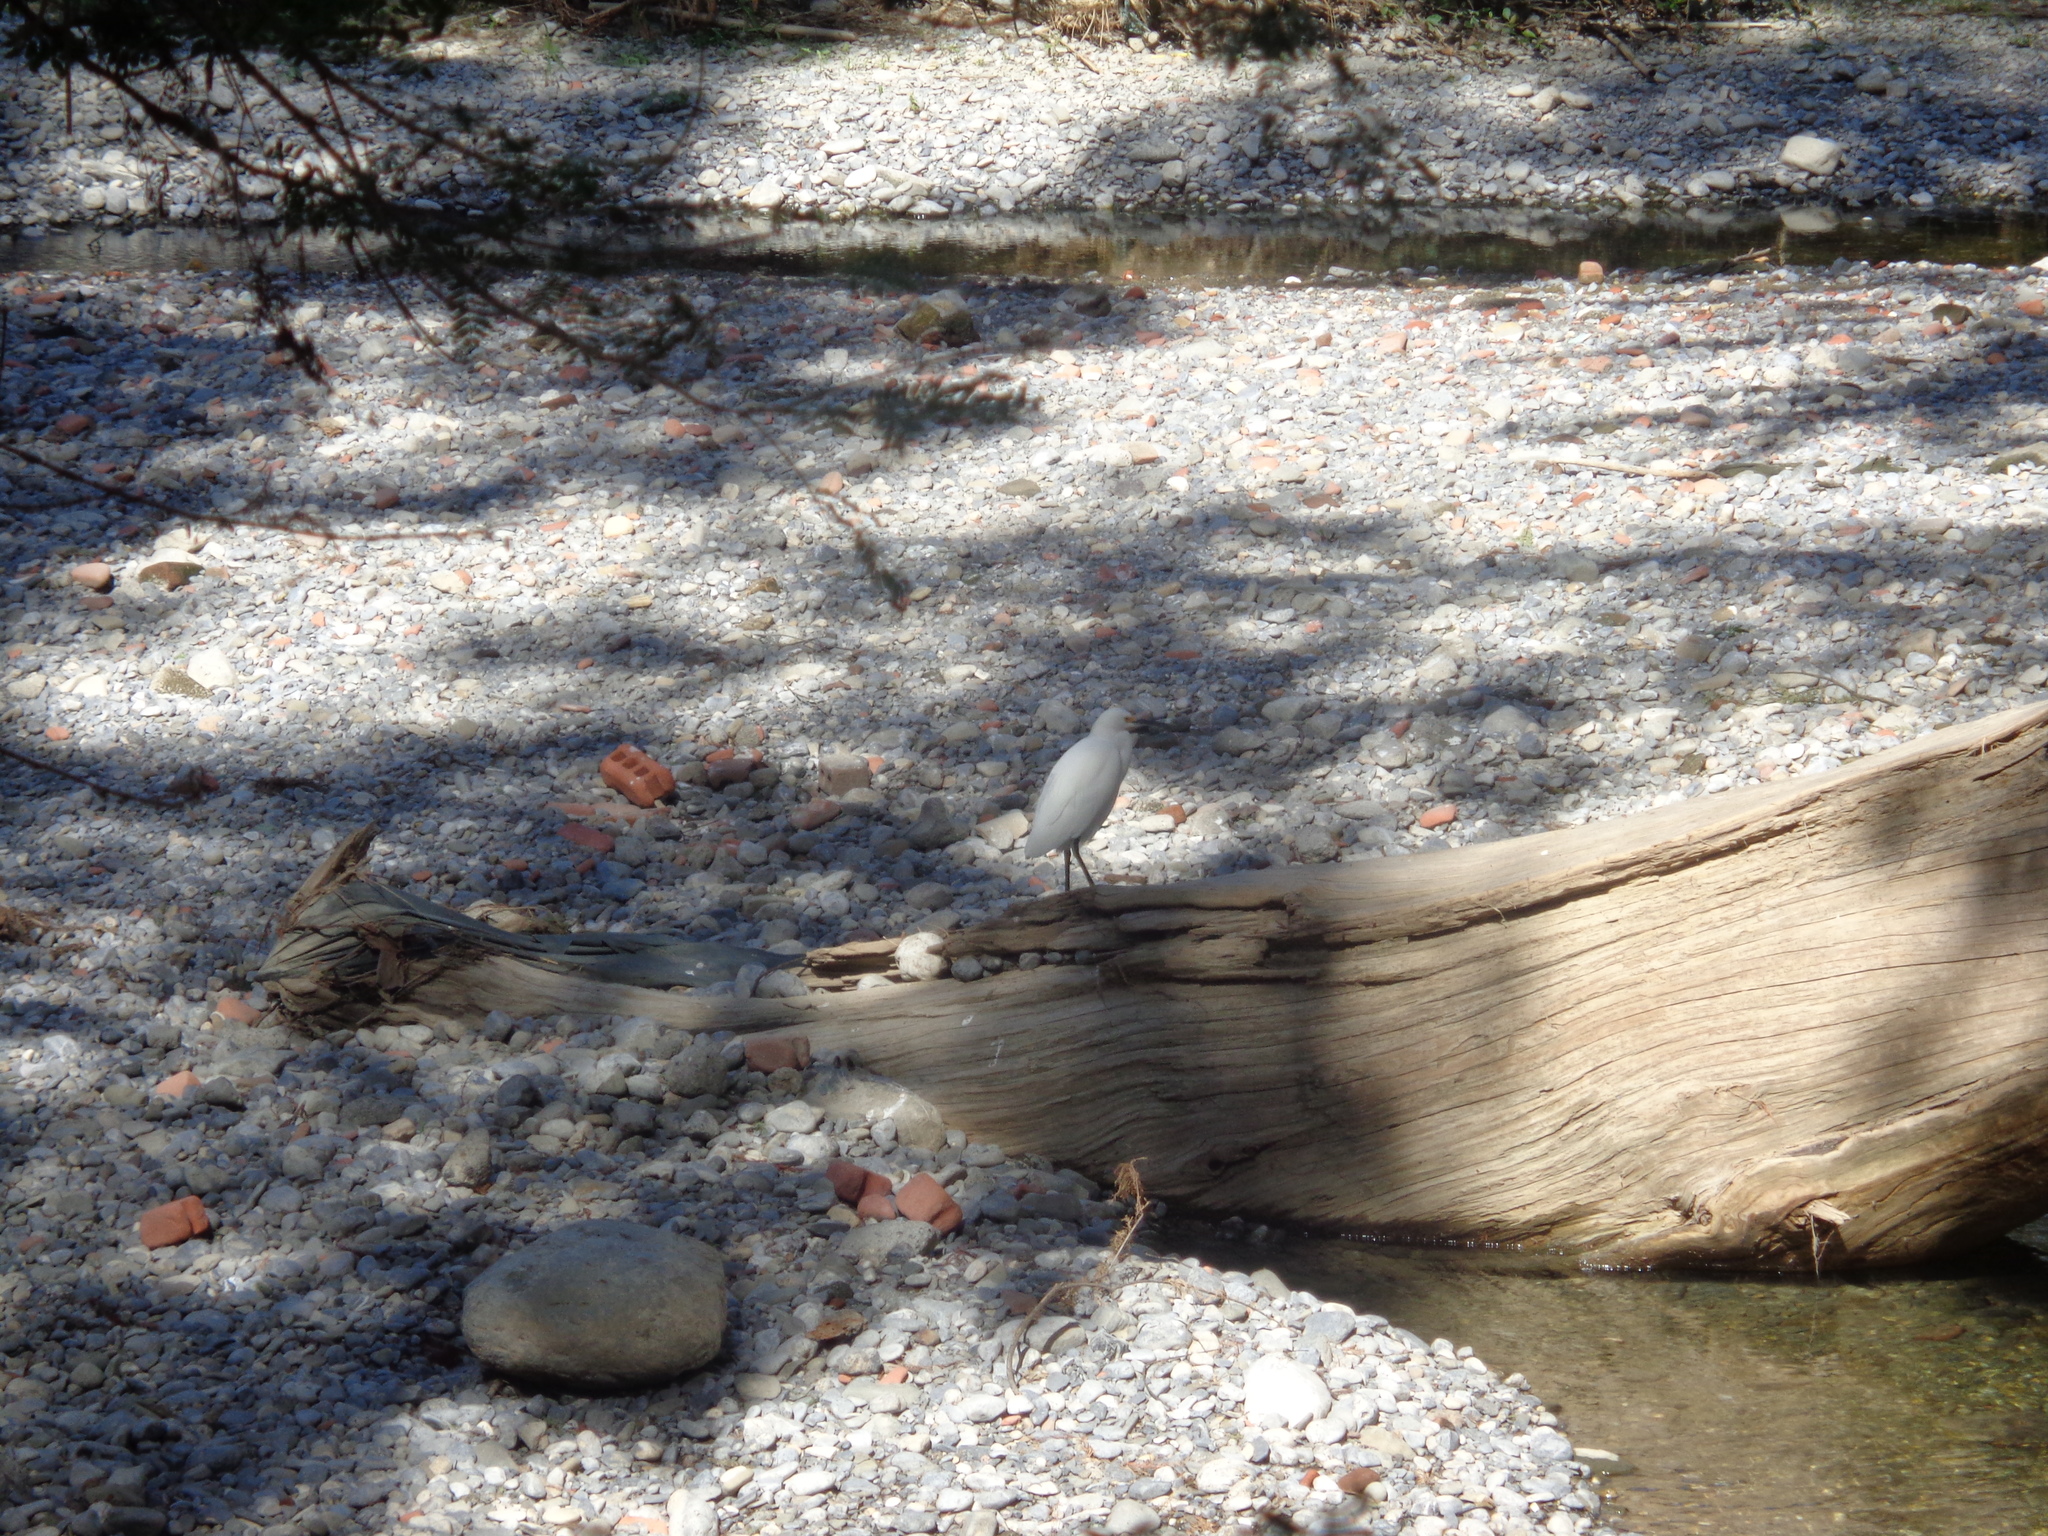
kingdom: Animalia
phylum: Chordata
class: Aves
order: Pelecaniformes
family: Ardeidae
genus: Egretta
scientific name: Egretta thula
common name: Snowy egret
